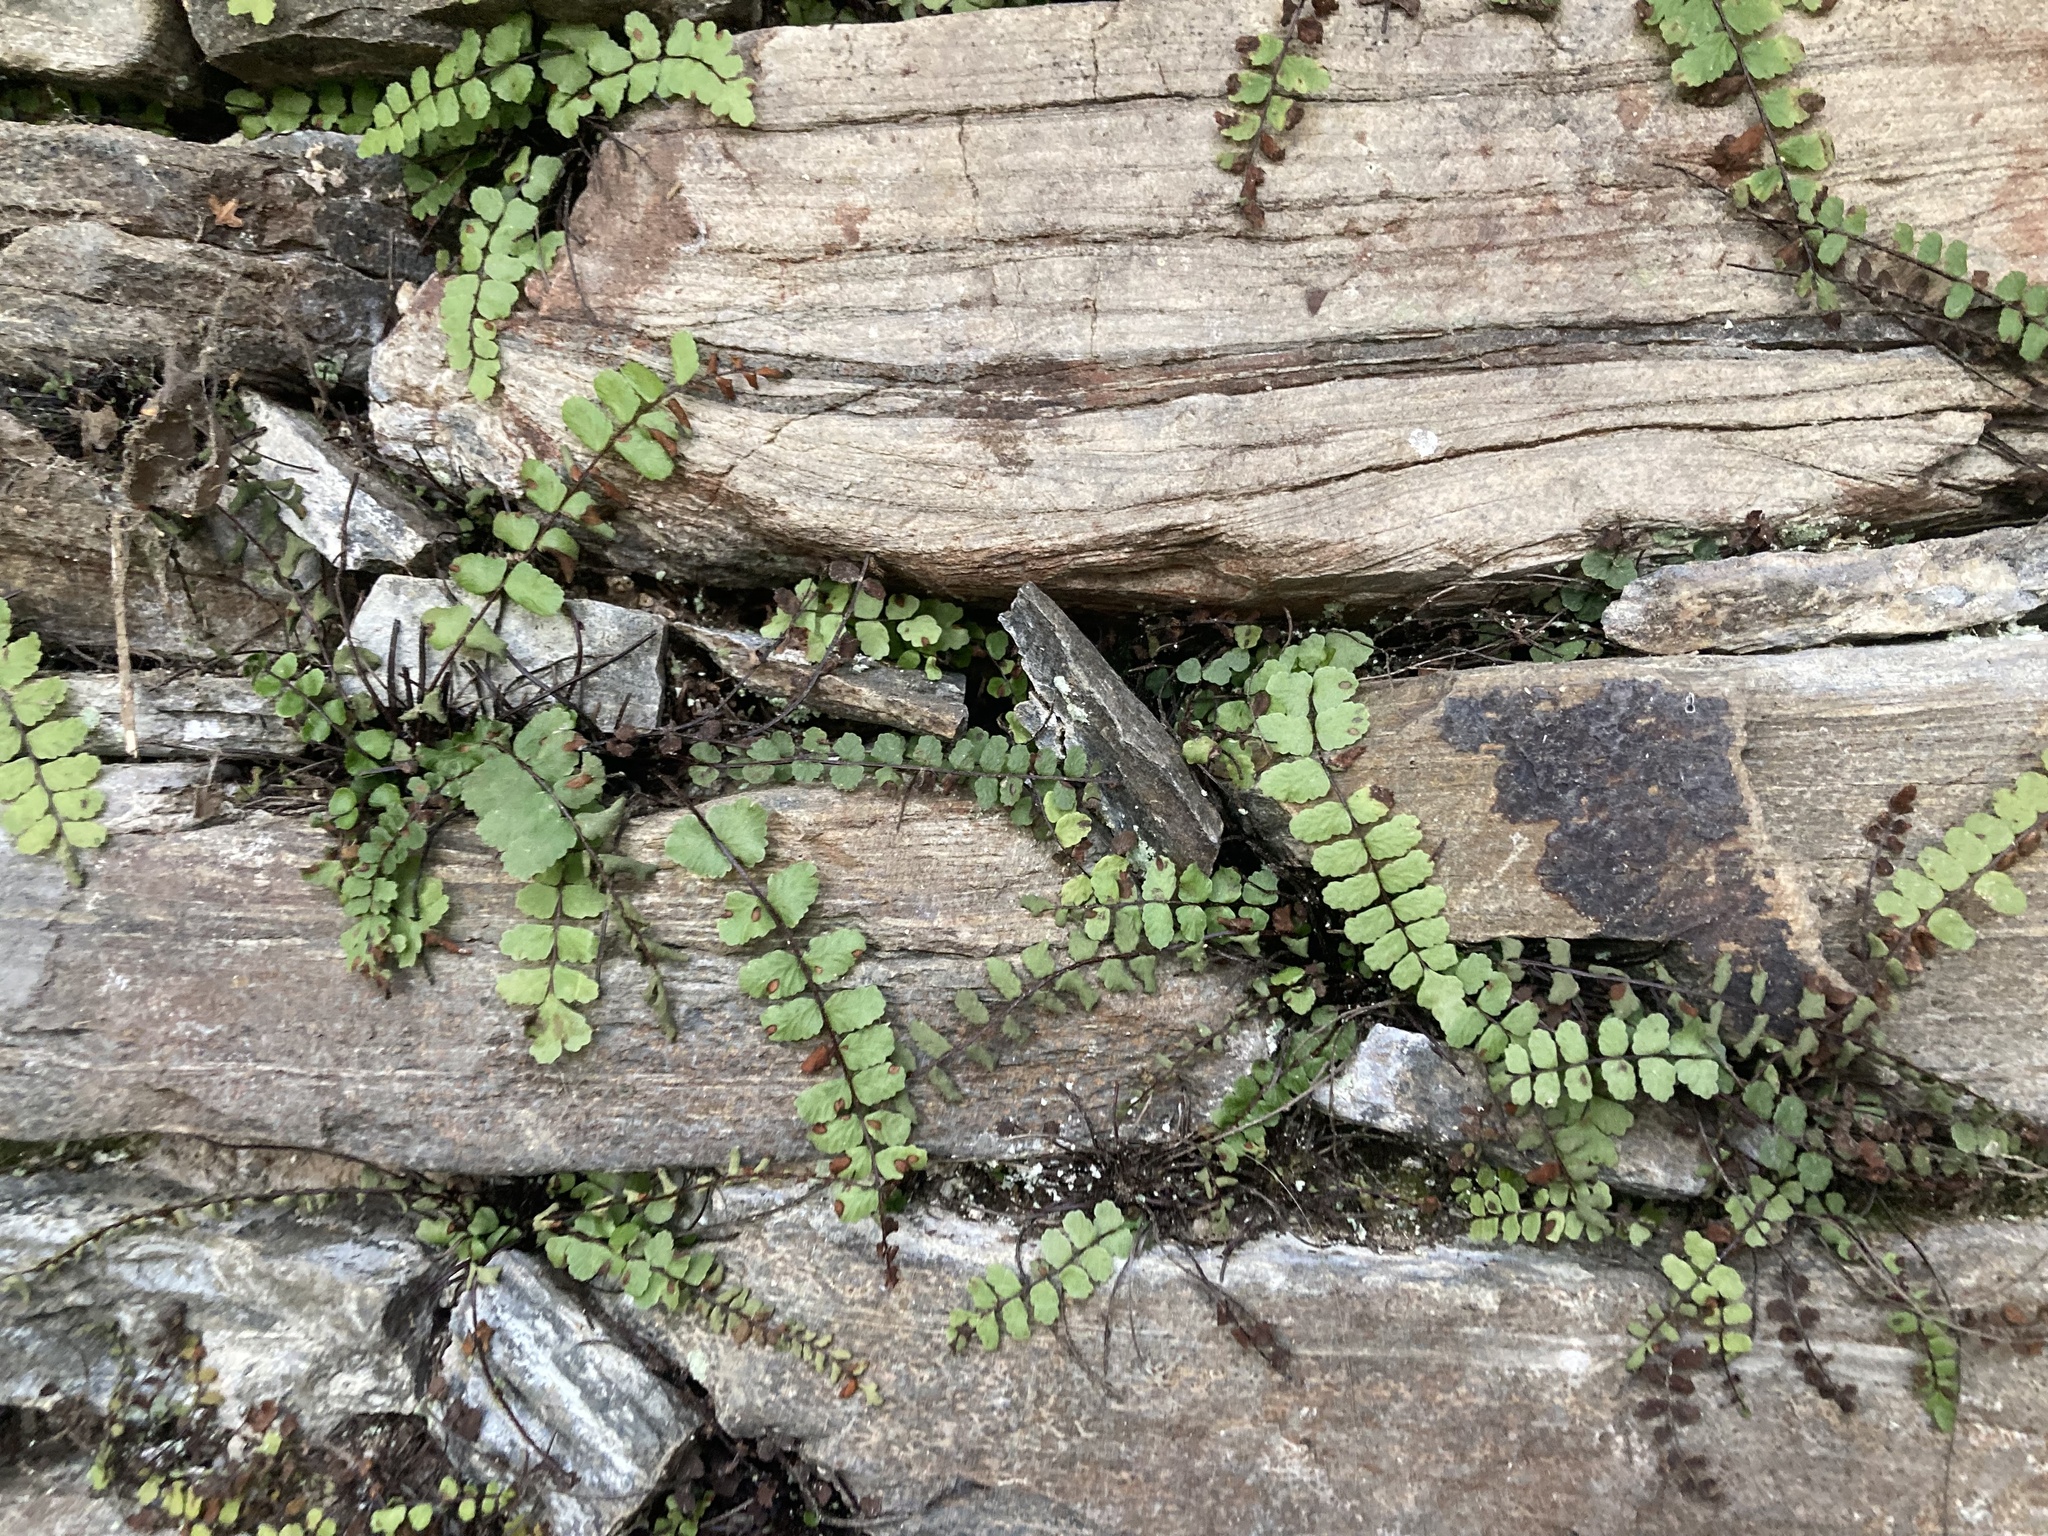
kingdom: Plantae
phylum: Tracheophyta
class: Polypodiopsida
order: Polypodiales
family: Aspleniaceae
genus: Asplenium
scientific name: Asplenium trichomanes
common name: Maidenhair spleenwort
